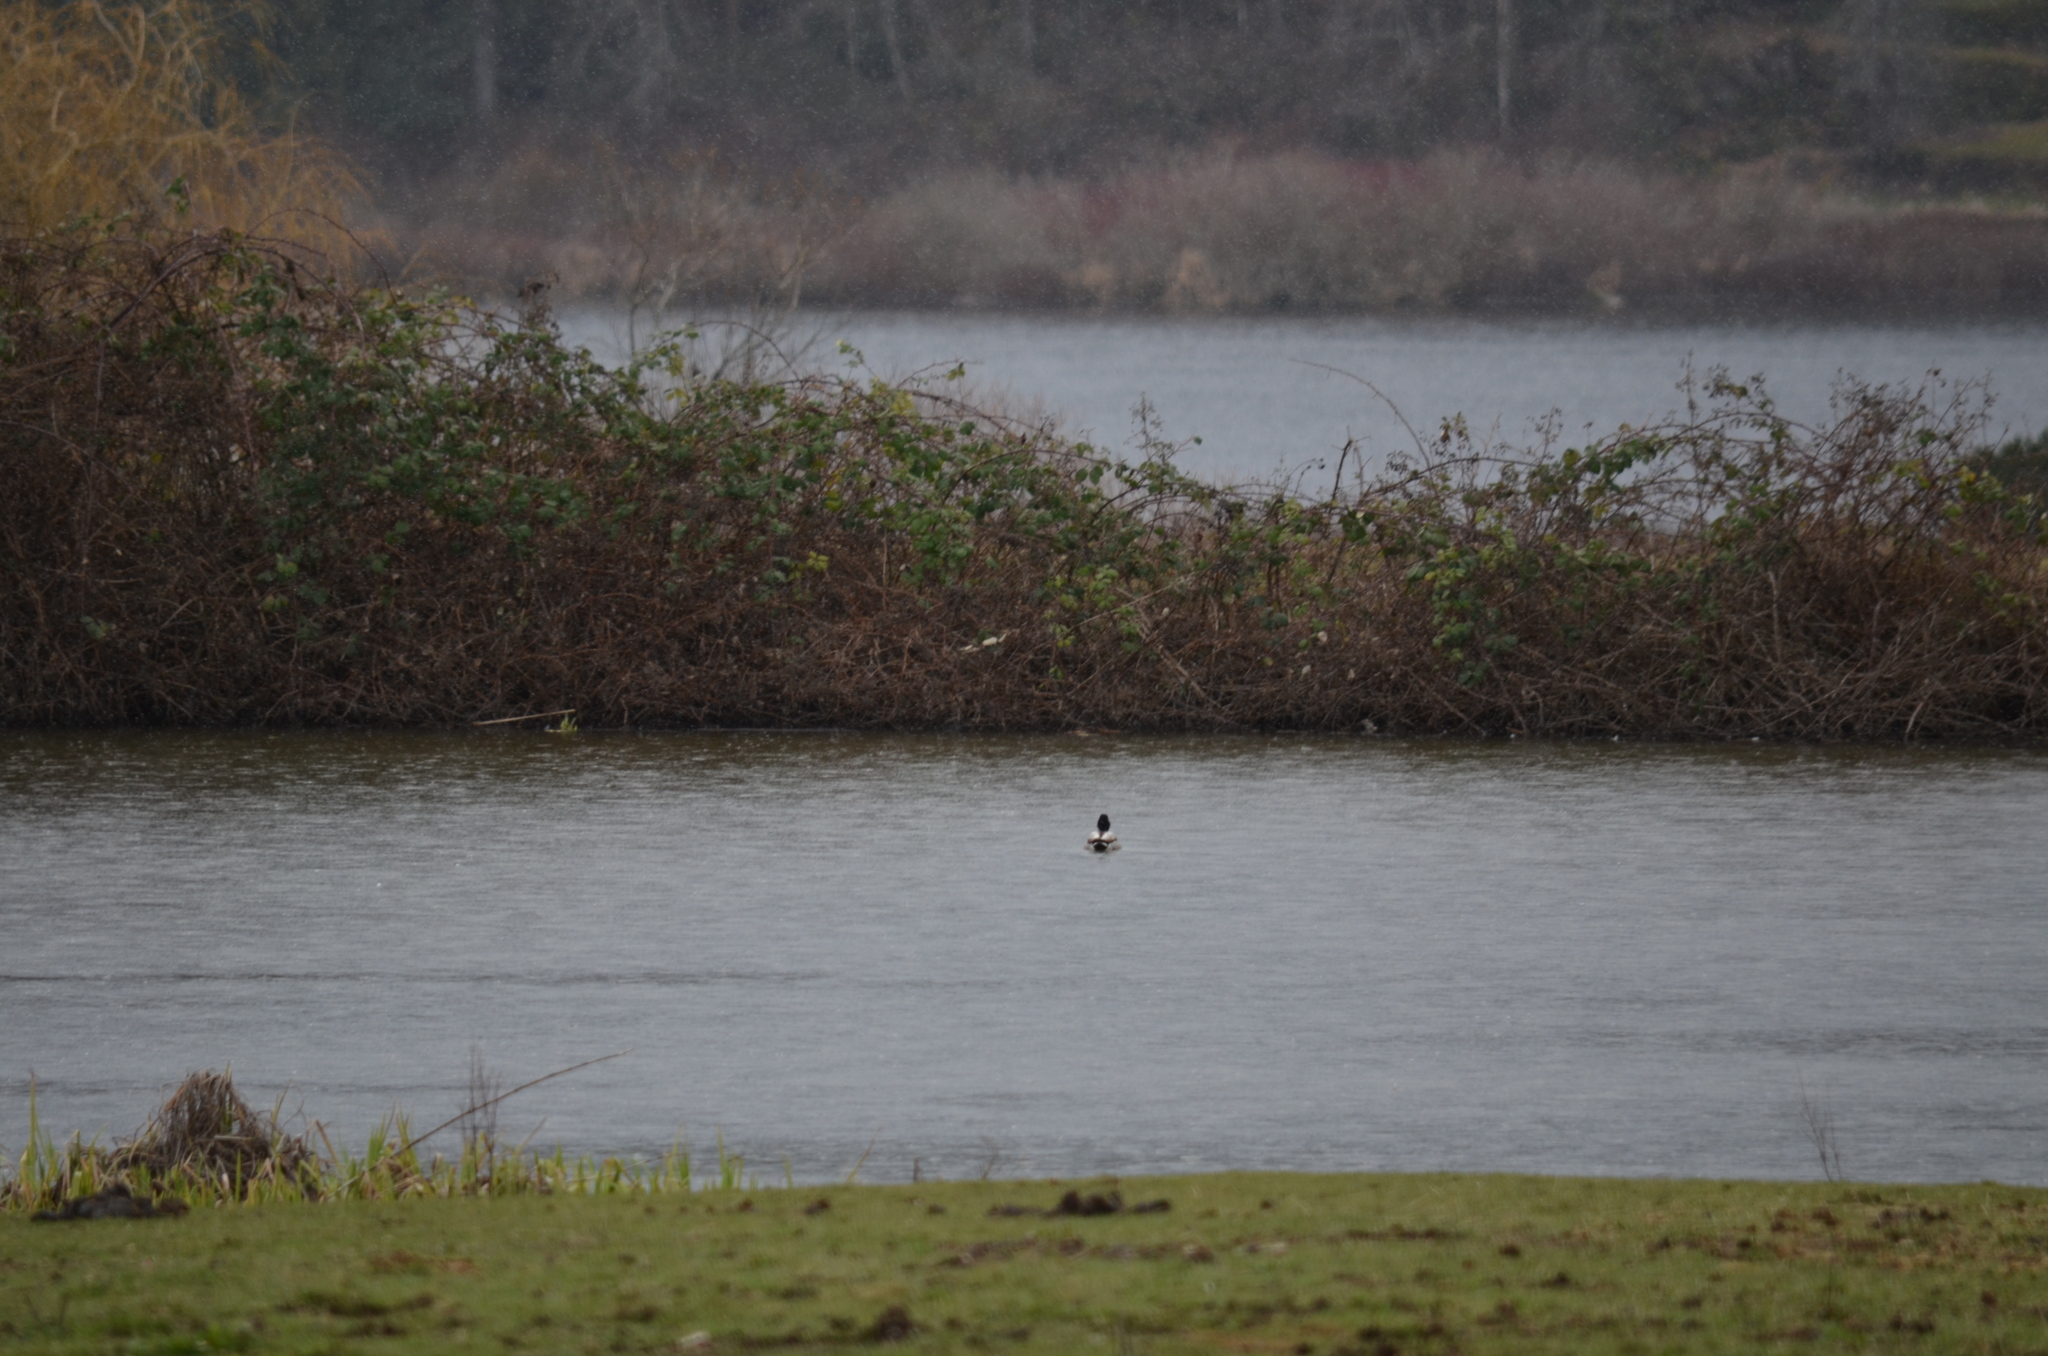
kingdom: Animalia
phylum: Chordata
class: Aves
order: Anseriformes
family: Anatidae
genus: Anas
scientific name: Anas platyrhynchos
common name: Mallard
